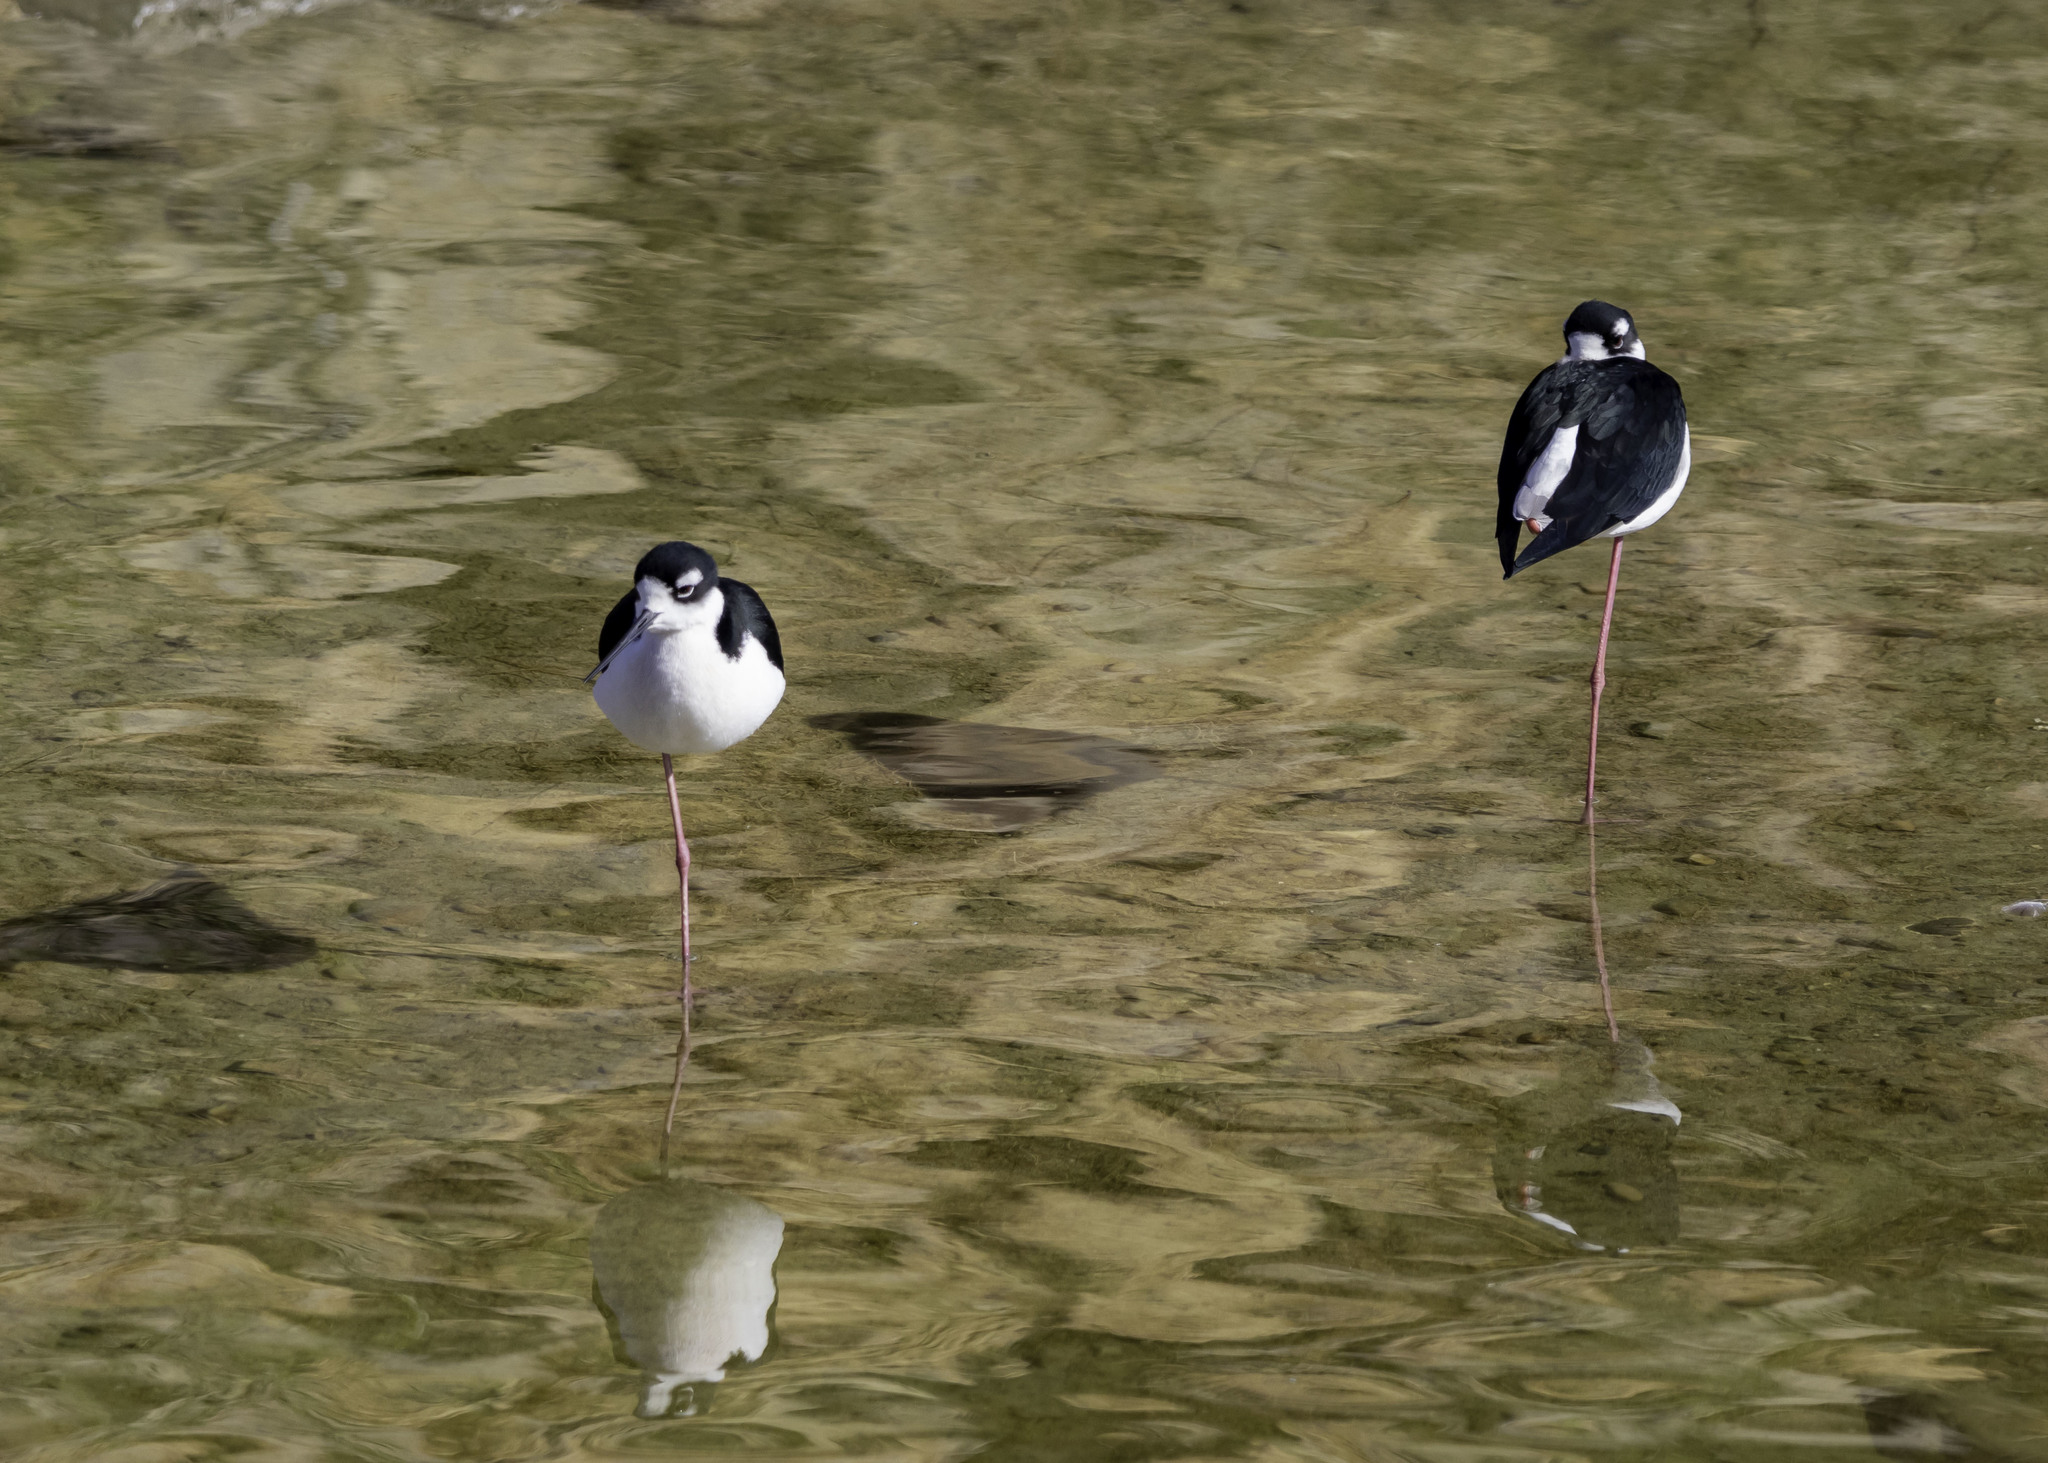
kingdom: Animalia
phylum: Chordata
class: Aves
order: Charadriiformes
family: Recurvirostridae
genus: Himantopus
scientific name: Himantopus mexicanus
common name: Black-necked stilt
